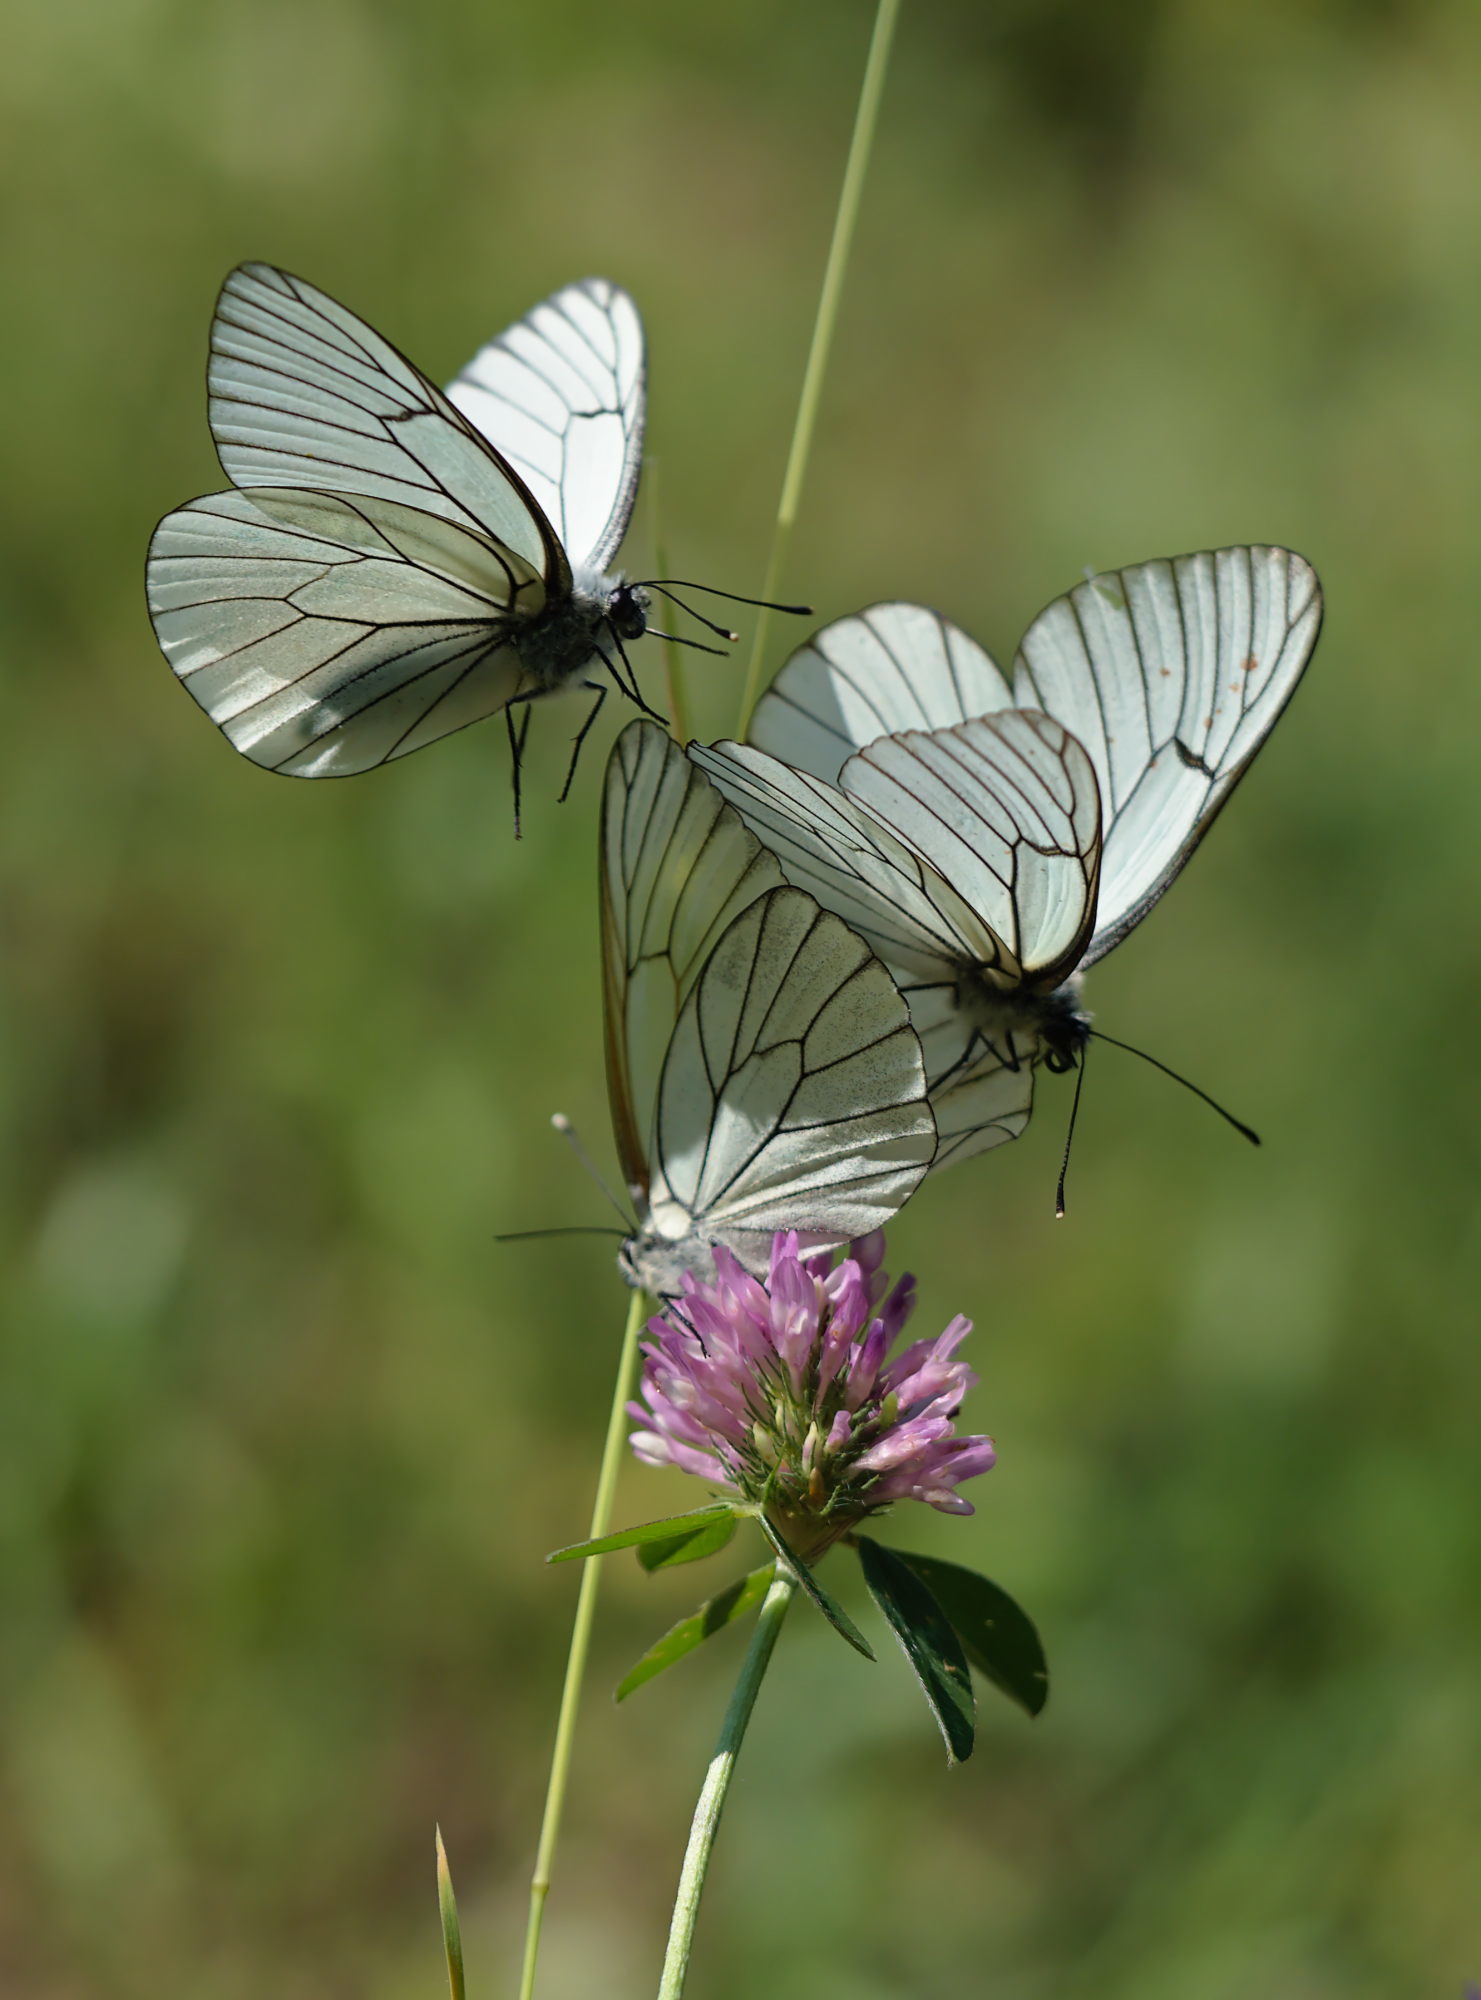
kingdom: Animalia
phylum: Arthropoda
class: Insecta
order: Lepidoptera
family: Pieridae
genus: Aporia
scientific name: Aporia crataegi
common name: Black-veined white
